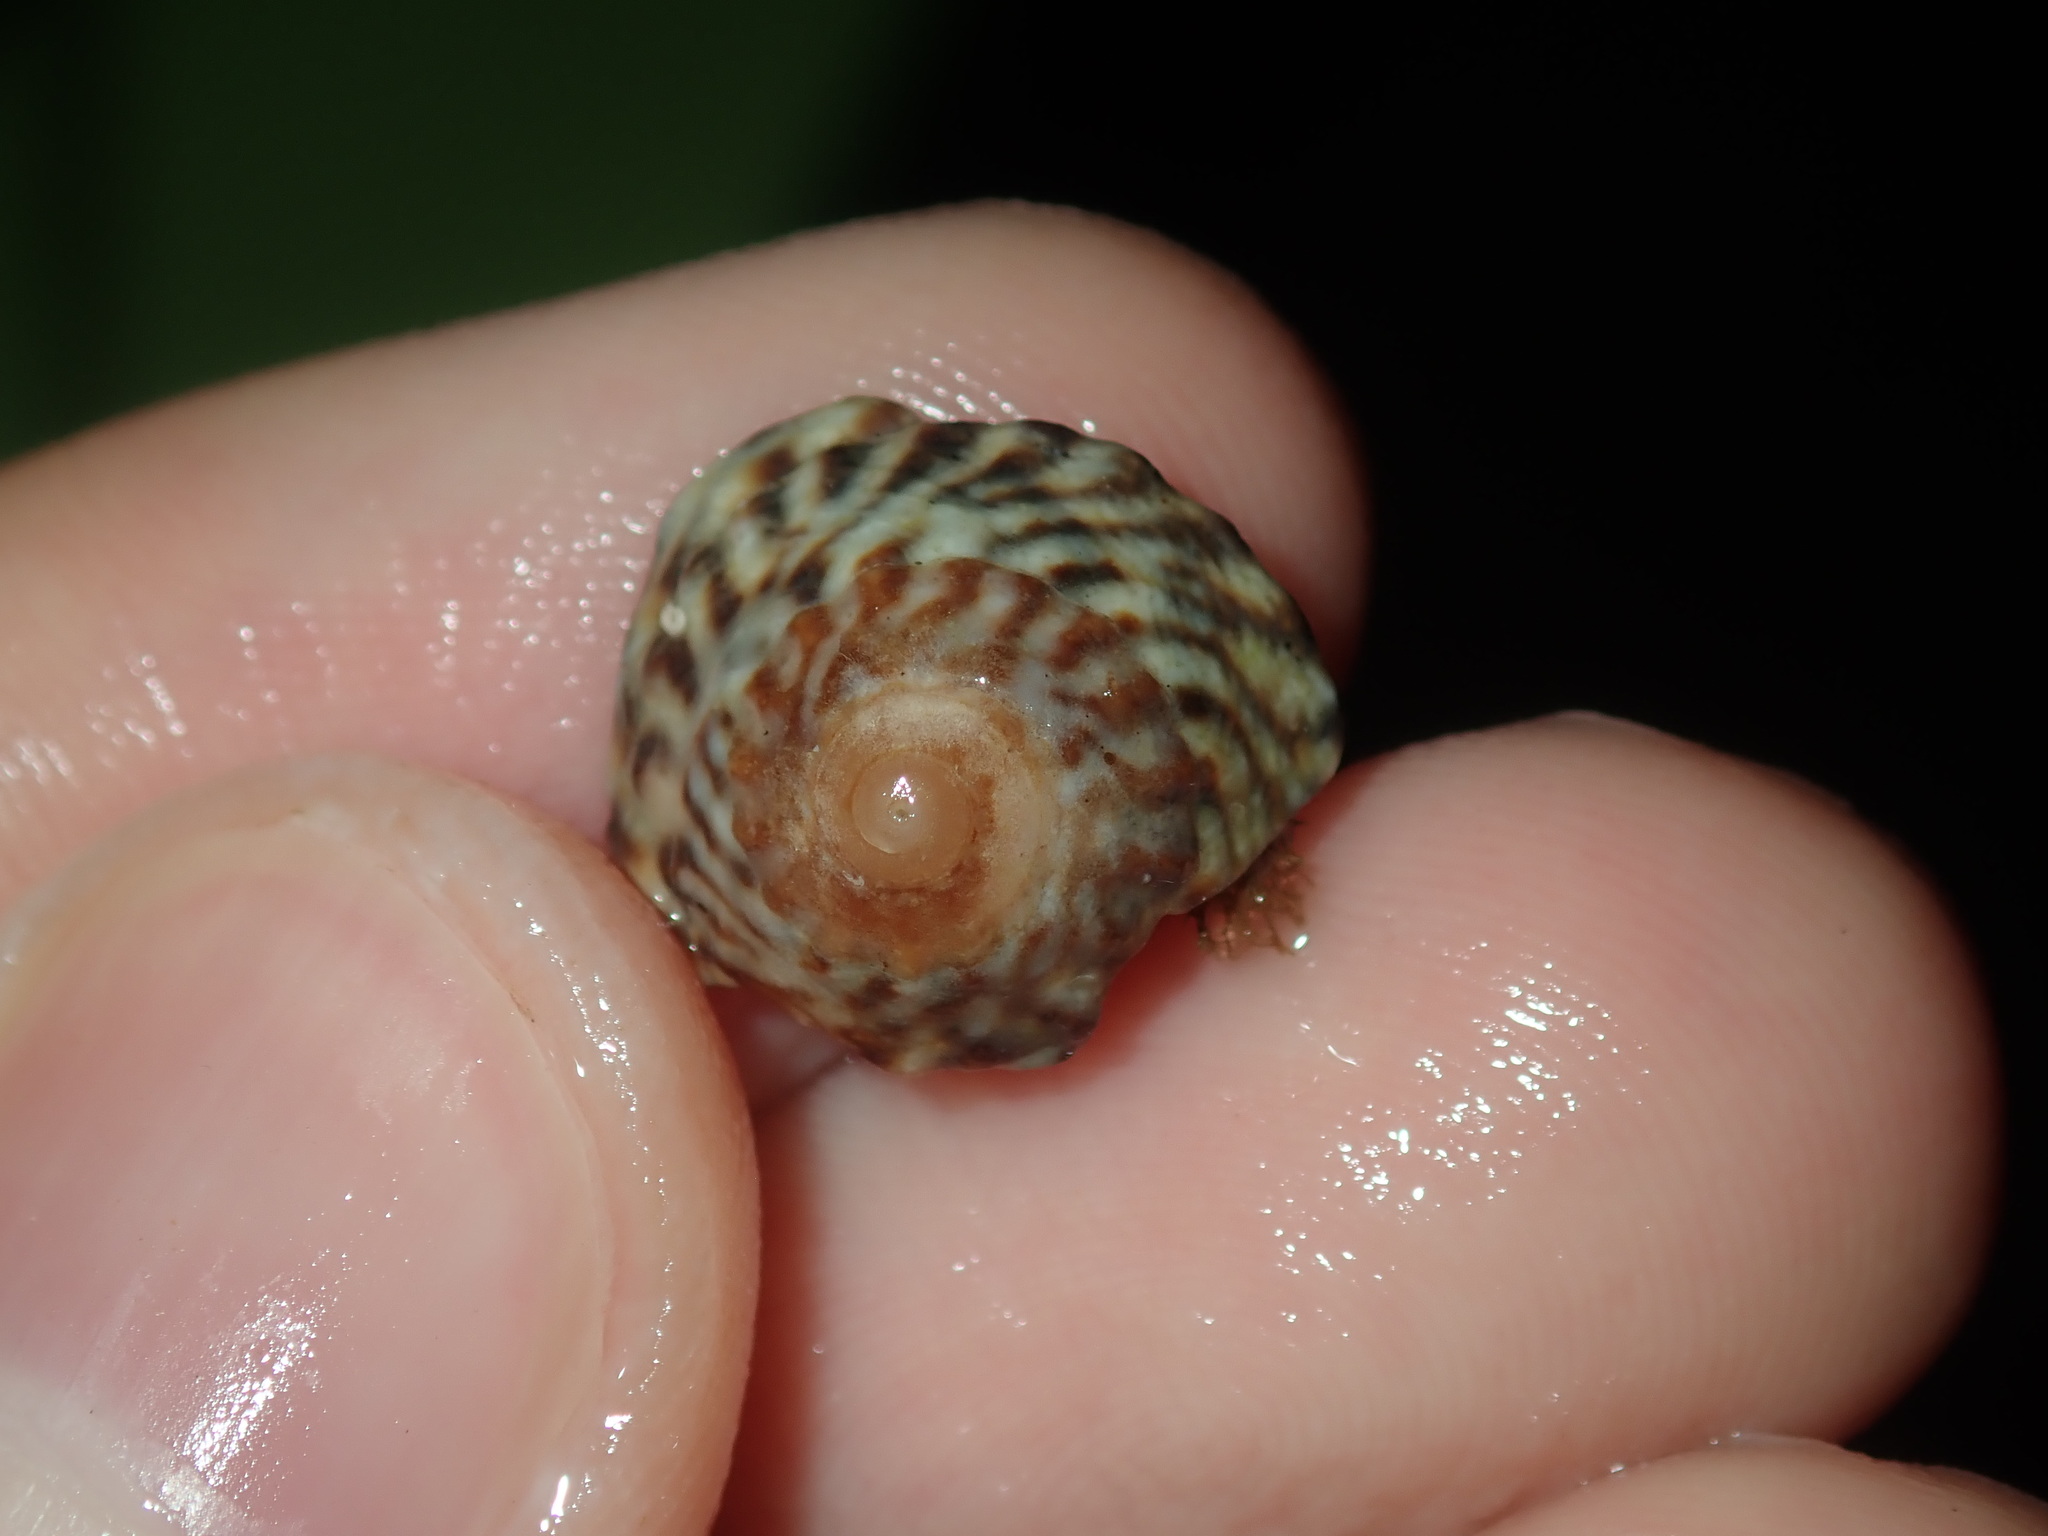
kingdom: Animalia
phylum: Mollusca
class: Gastropoda
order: Littorinimorpha
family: Littorinidae
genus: Bembicium
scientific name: Bembicium nanum
